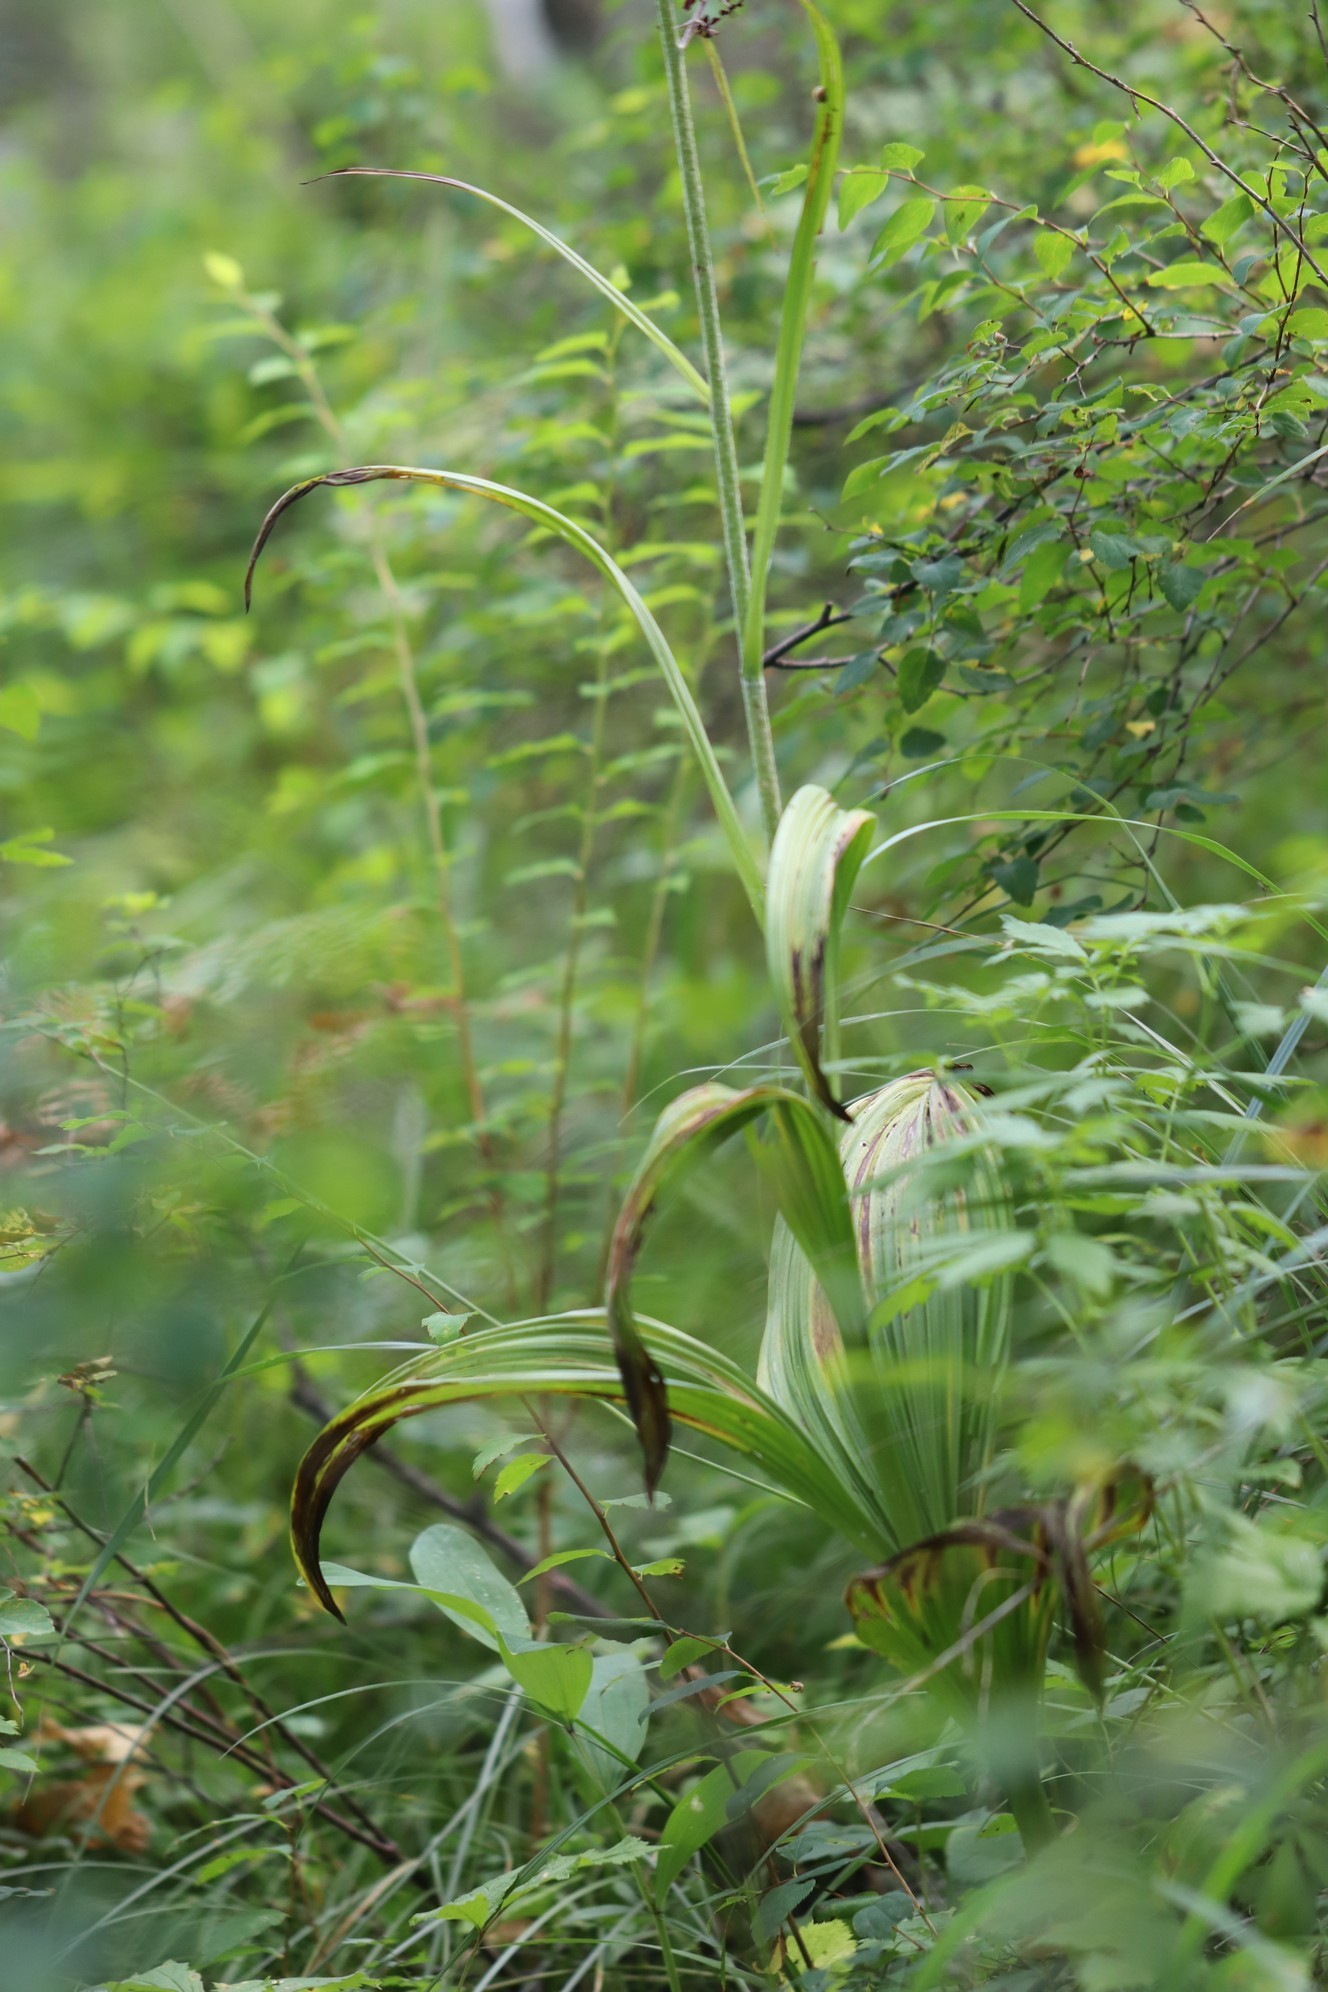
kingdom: Plantae
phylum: Tracheophyta
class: Liliopsida
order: Liliales
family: Melanthiaceae
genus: Veratrum
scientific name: Veratrum nigrum
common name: Black veratrum
